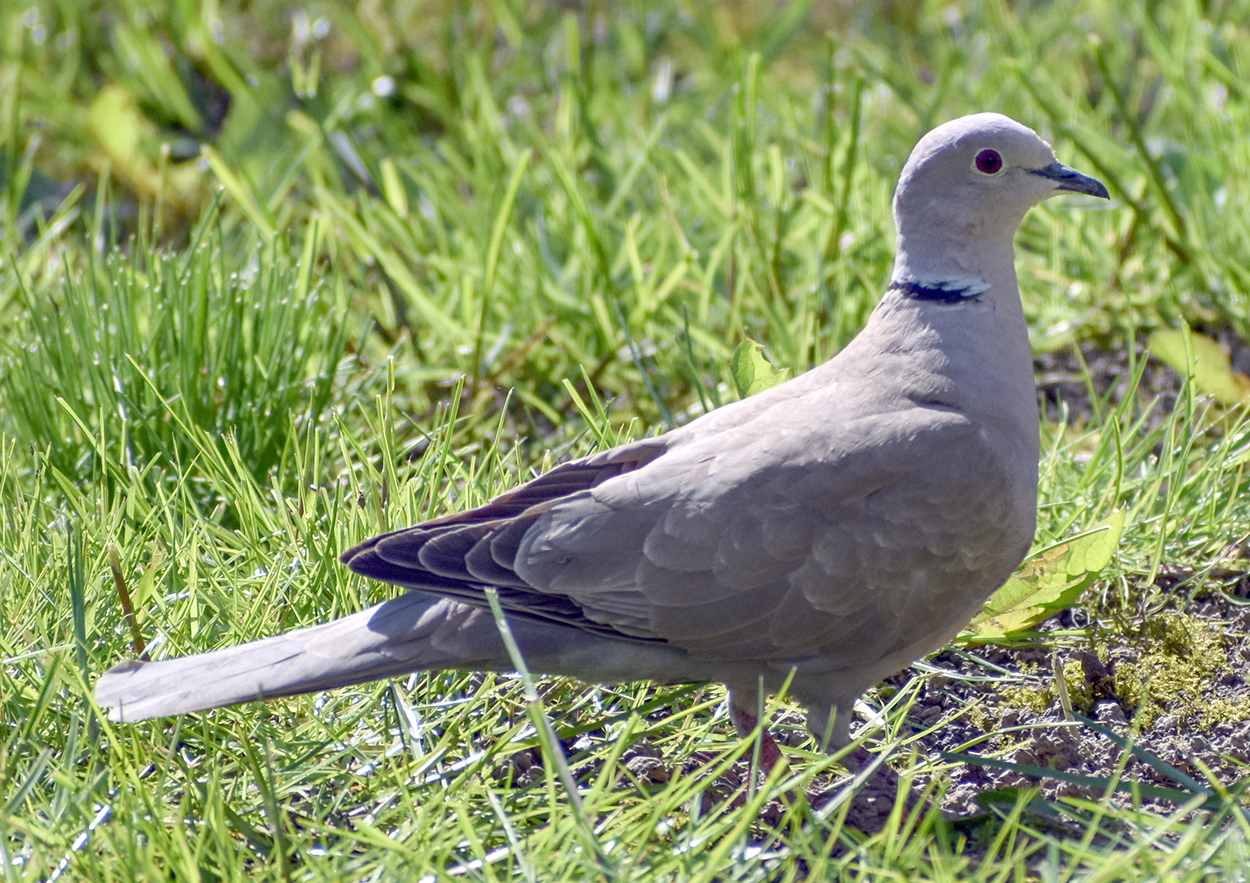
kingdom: Animalia
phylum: Chordata
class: Aves
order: Columbiformes
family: Columbidae
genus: Streptopelia
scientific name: Streptopelia decaocto
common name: Eurasian collared dove
